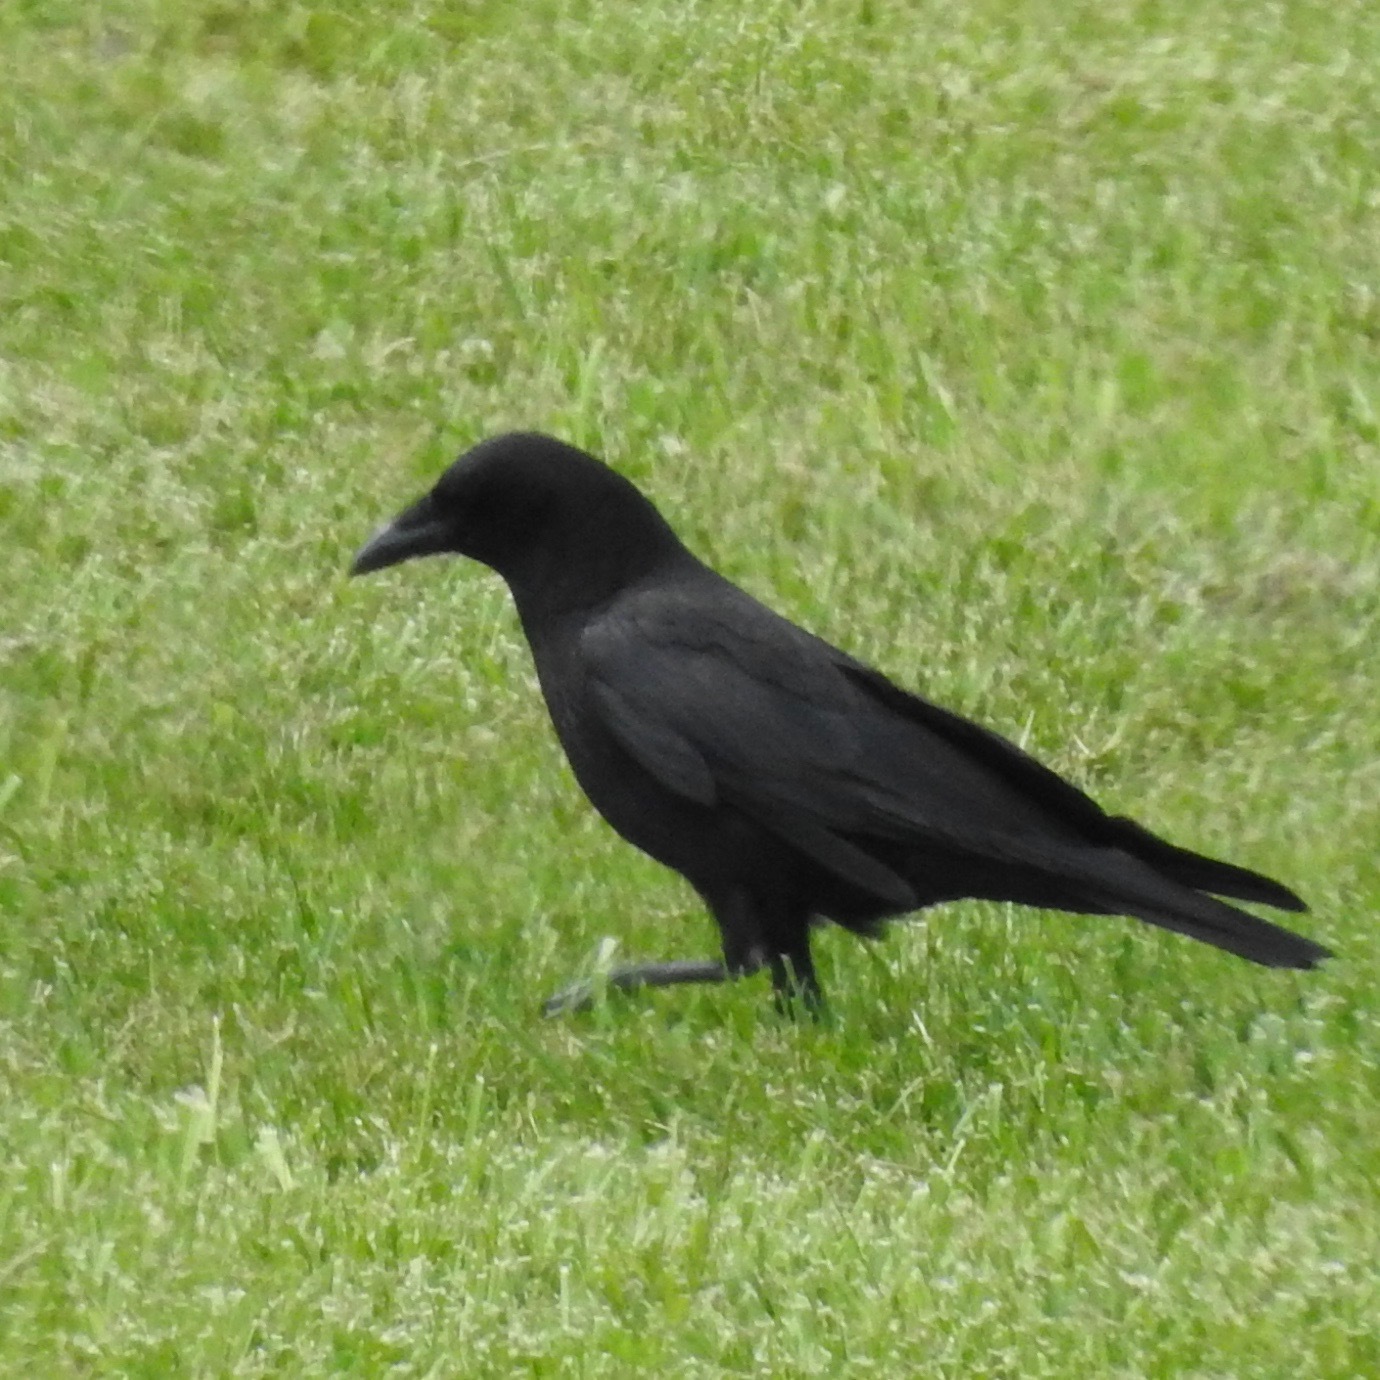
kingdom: Animalia
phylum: Chordata
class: Aves
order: Passeriformes
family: Corvidae
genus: Corvus
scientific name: Corvus brachyrhynchos
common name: American crow
